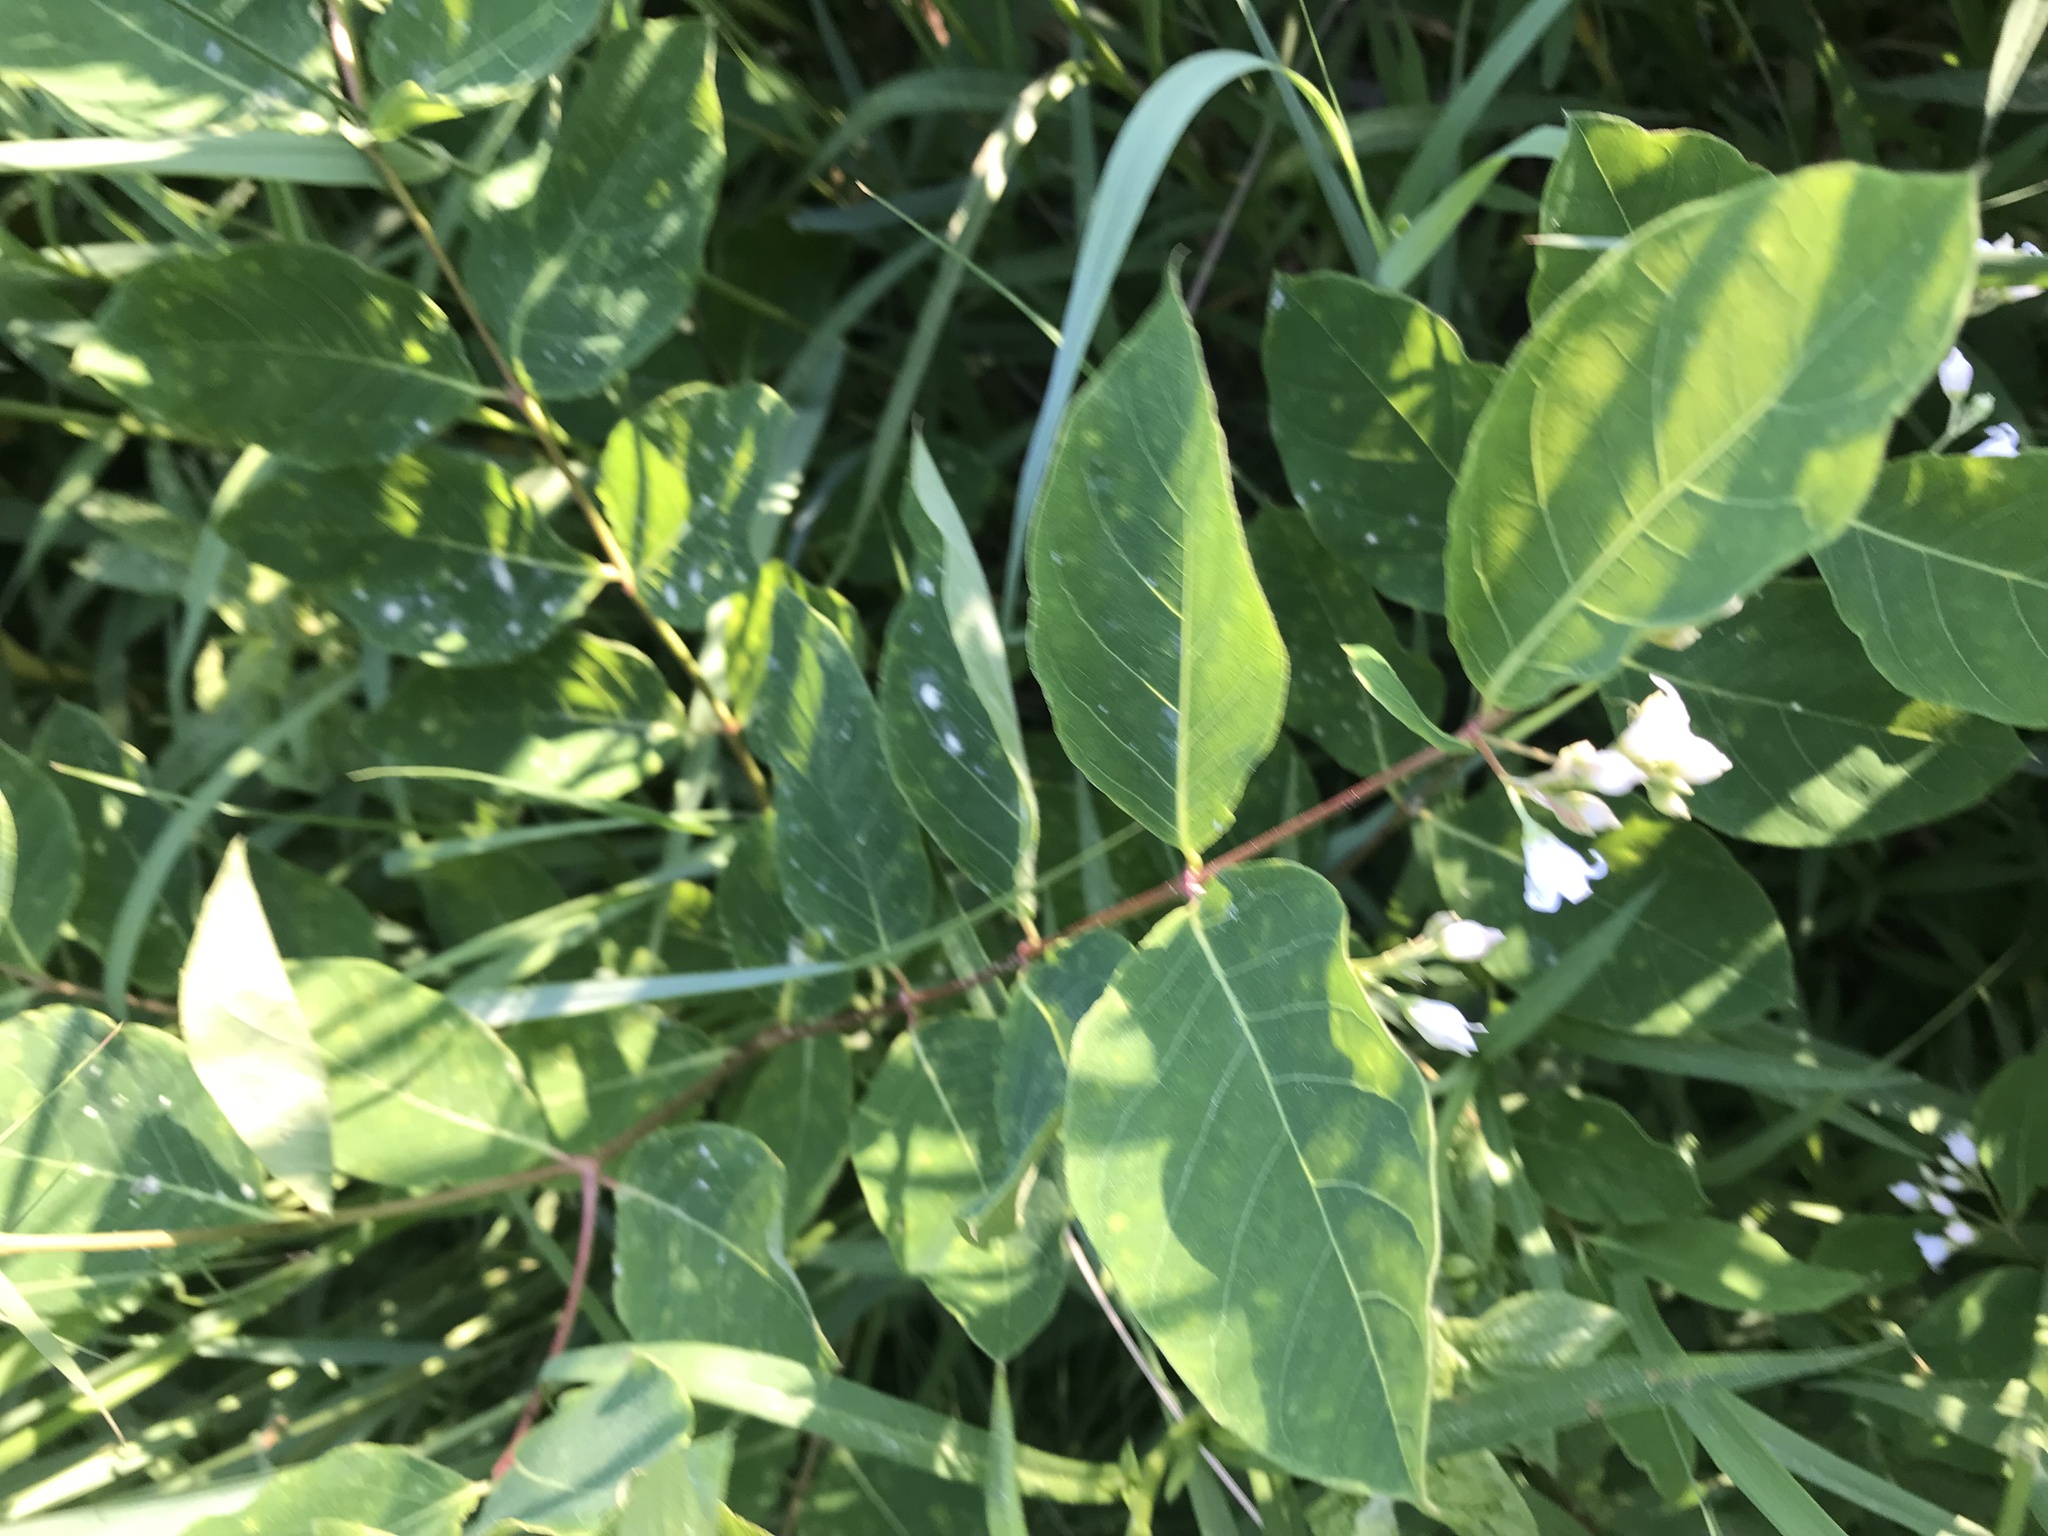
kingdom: Plantae
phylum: Tracheophyta
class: Magnoliopsida
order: Gentianales
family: Apocynaceae
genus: Apocynum
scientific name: Apocynum androsaemifolium
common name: Spreading dogbane
